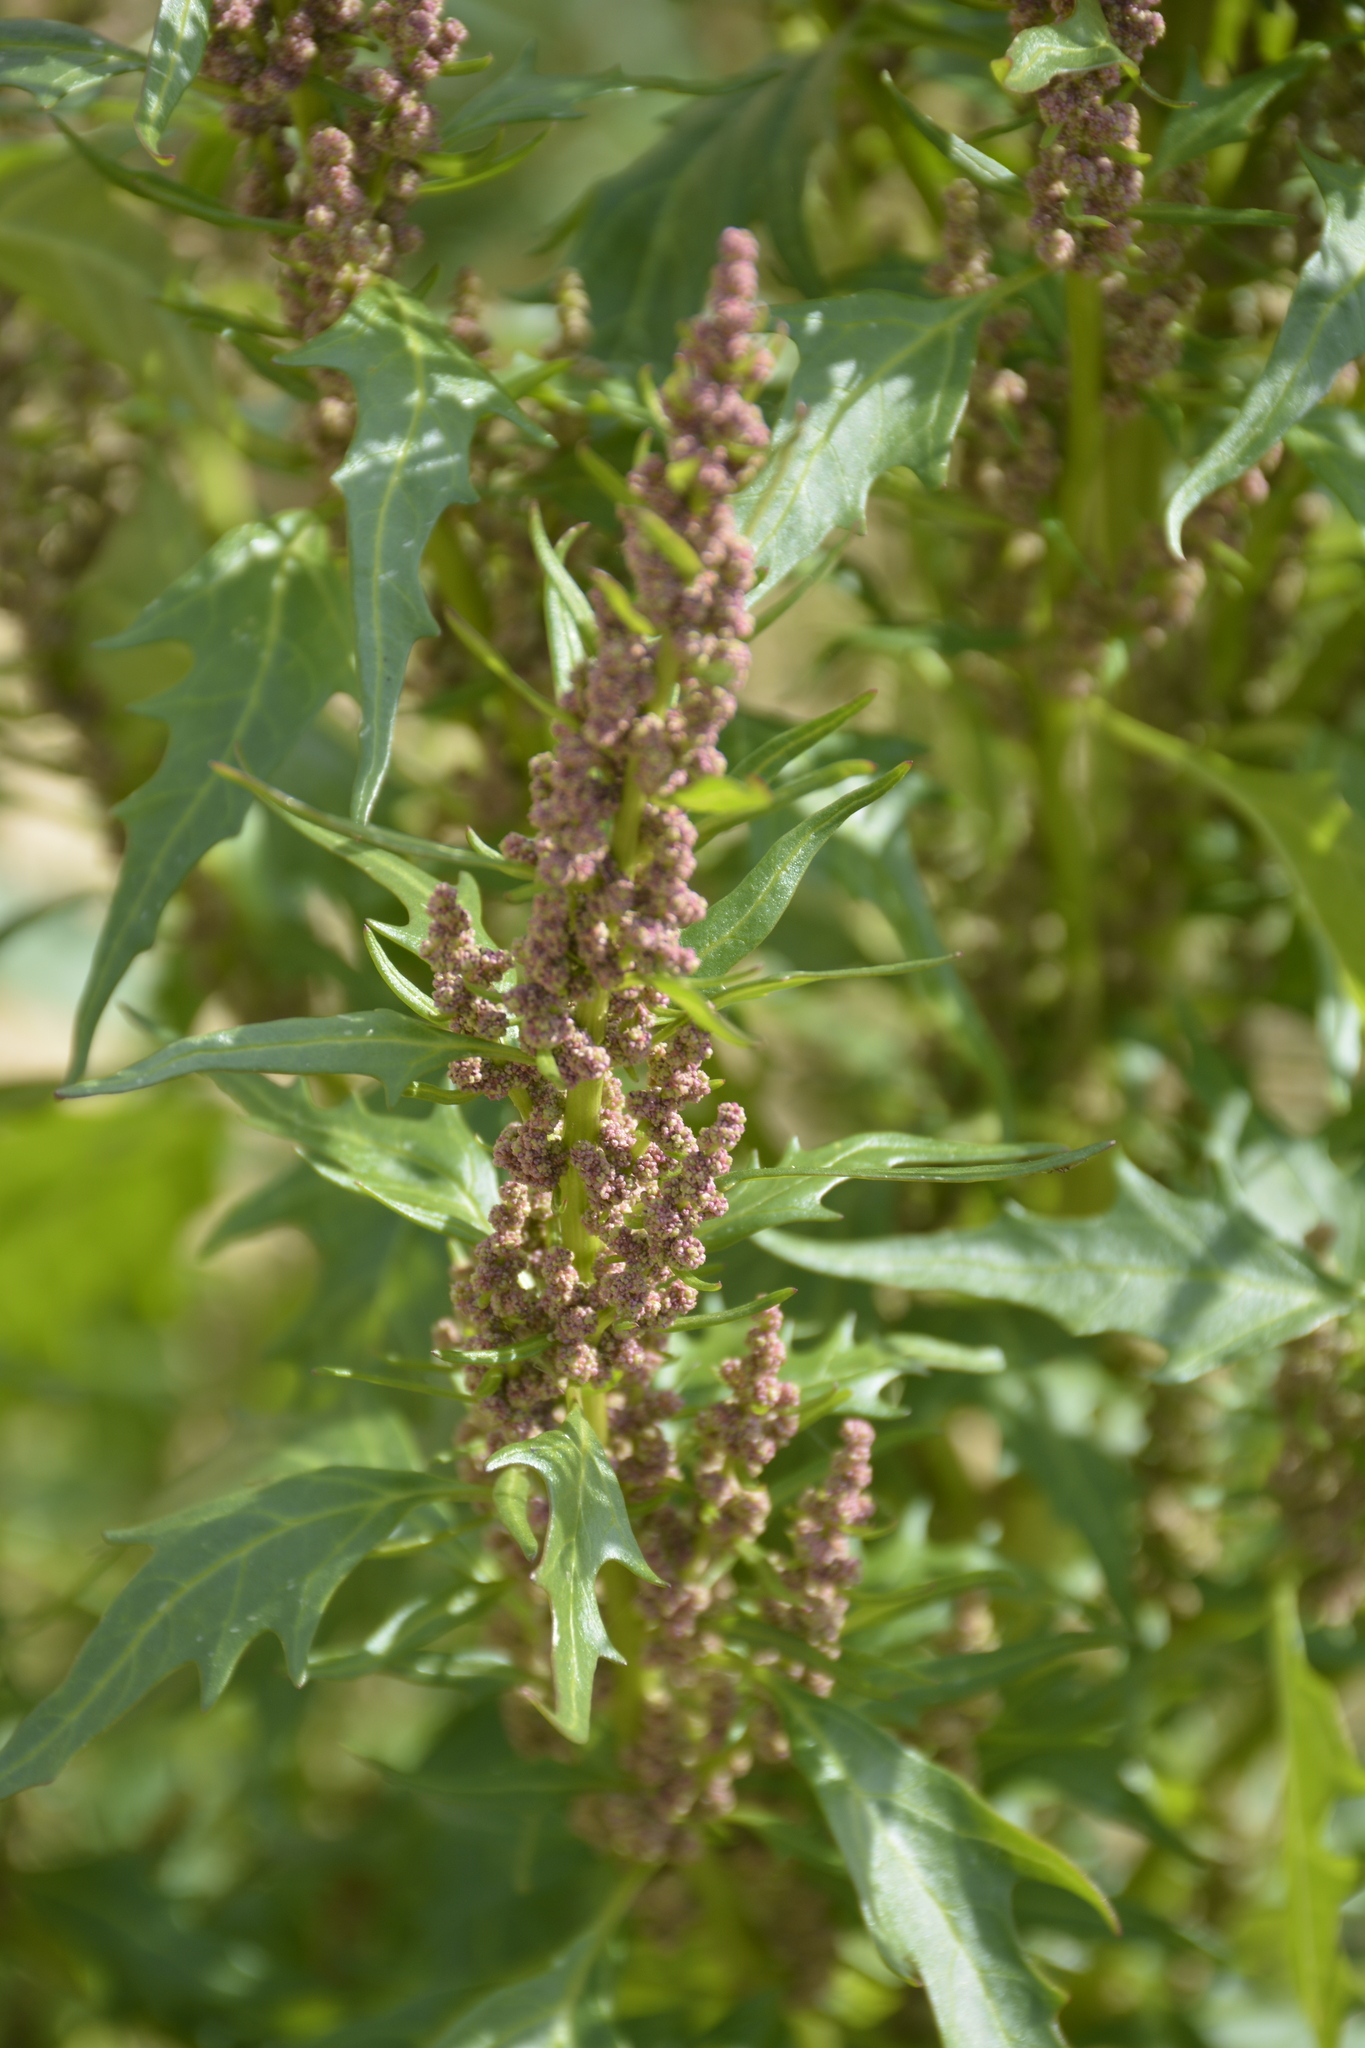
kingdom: Plantae
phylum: Tracheophyta
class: Magnoliopsida
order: Caryophyllales
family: Amaranthaceae
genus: Oxybasis
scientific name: Oxybasis rubra
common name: Red goosefoot
